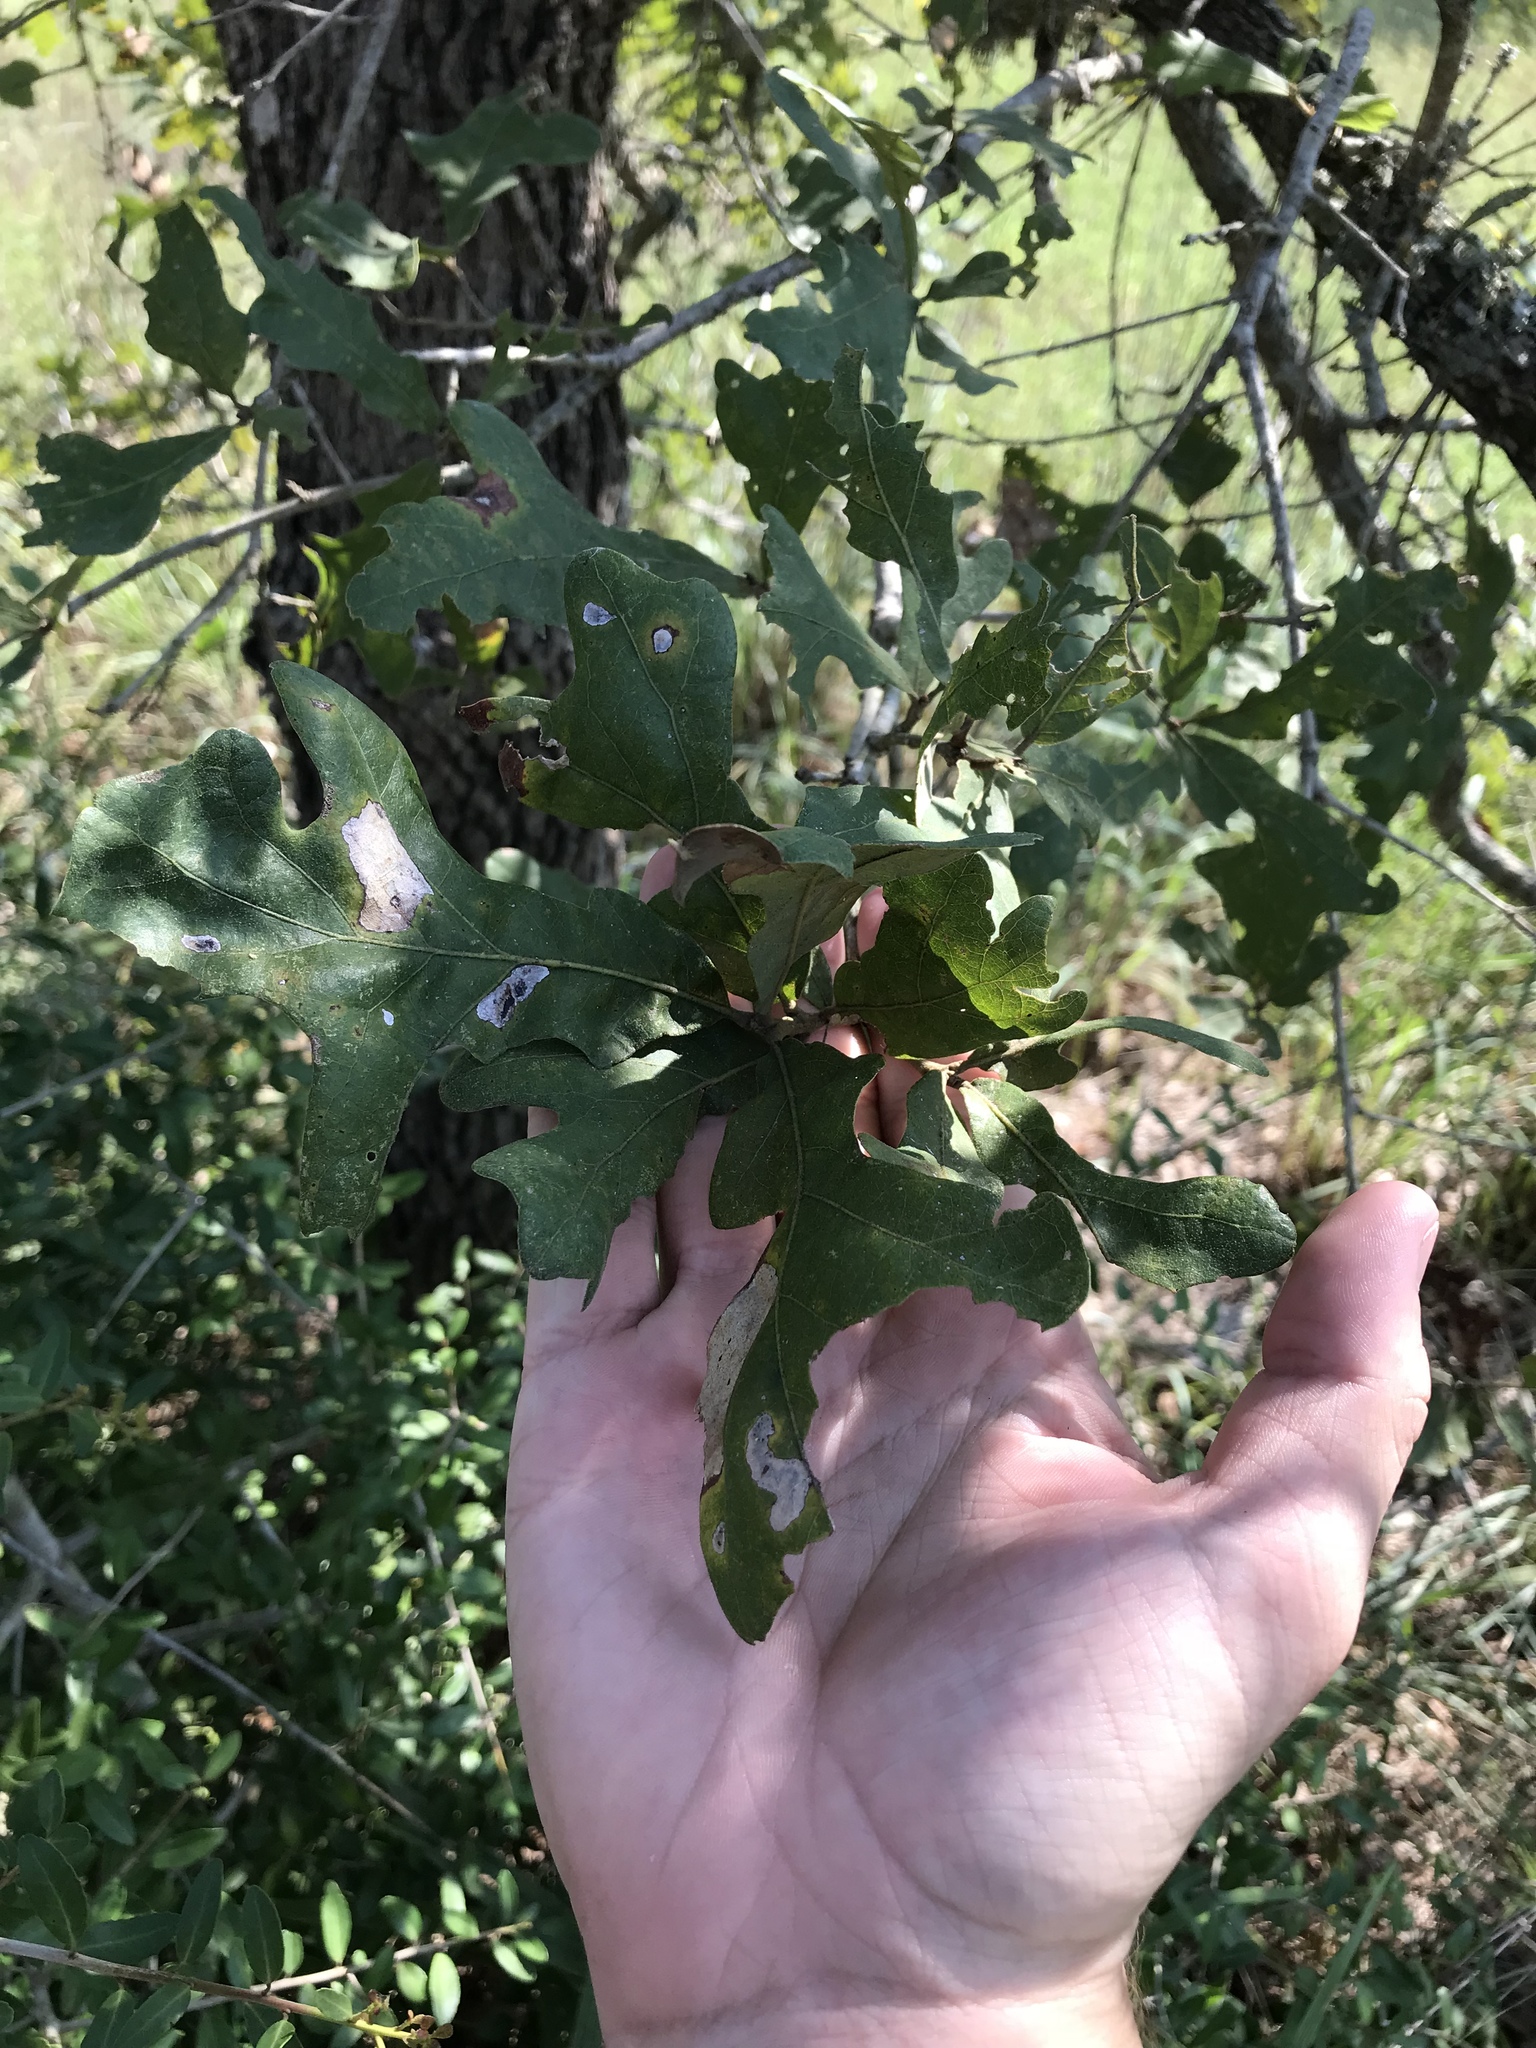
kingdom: Plantae
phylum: Tracheophyta
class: Magnoliopsida
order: Fagales
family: Fagaceae
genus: Quercus
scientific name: Quercus stellata
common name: Post oak
